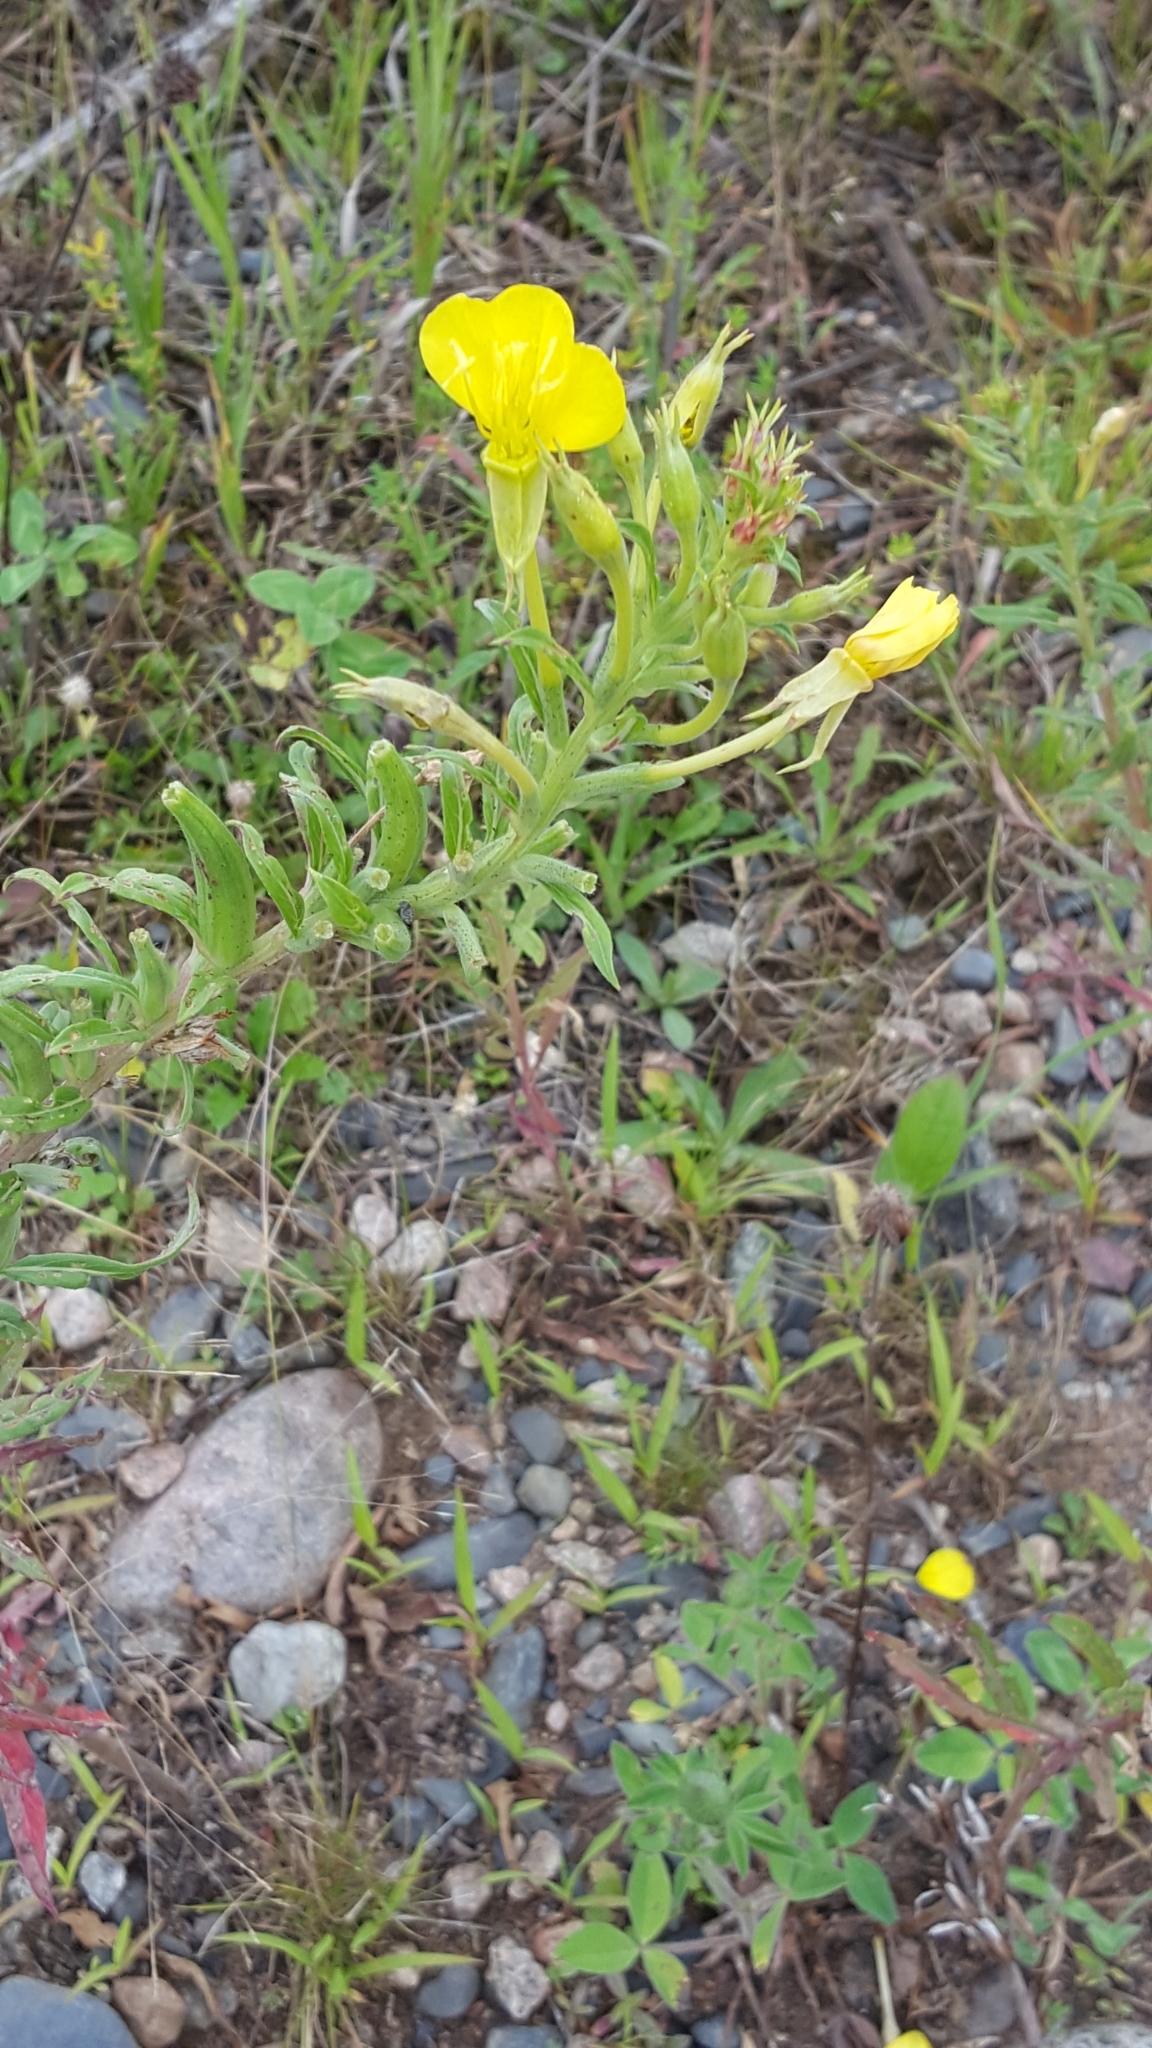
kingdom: Plantae
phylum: Tracheophyta
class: Magnoliopsida
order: Myrtales
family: Onagraceae
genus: Oenothera
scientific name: Oenothera parviflora
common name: Least evening-primrose
